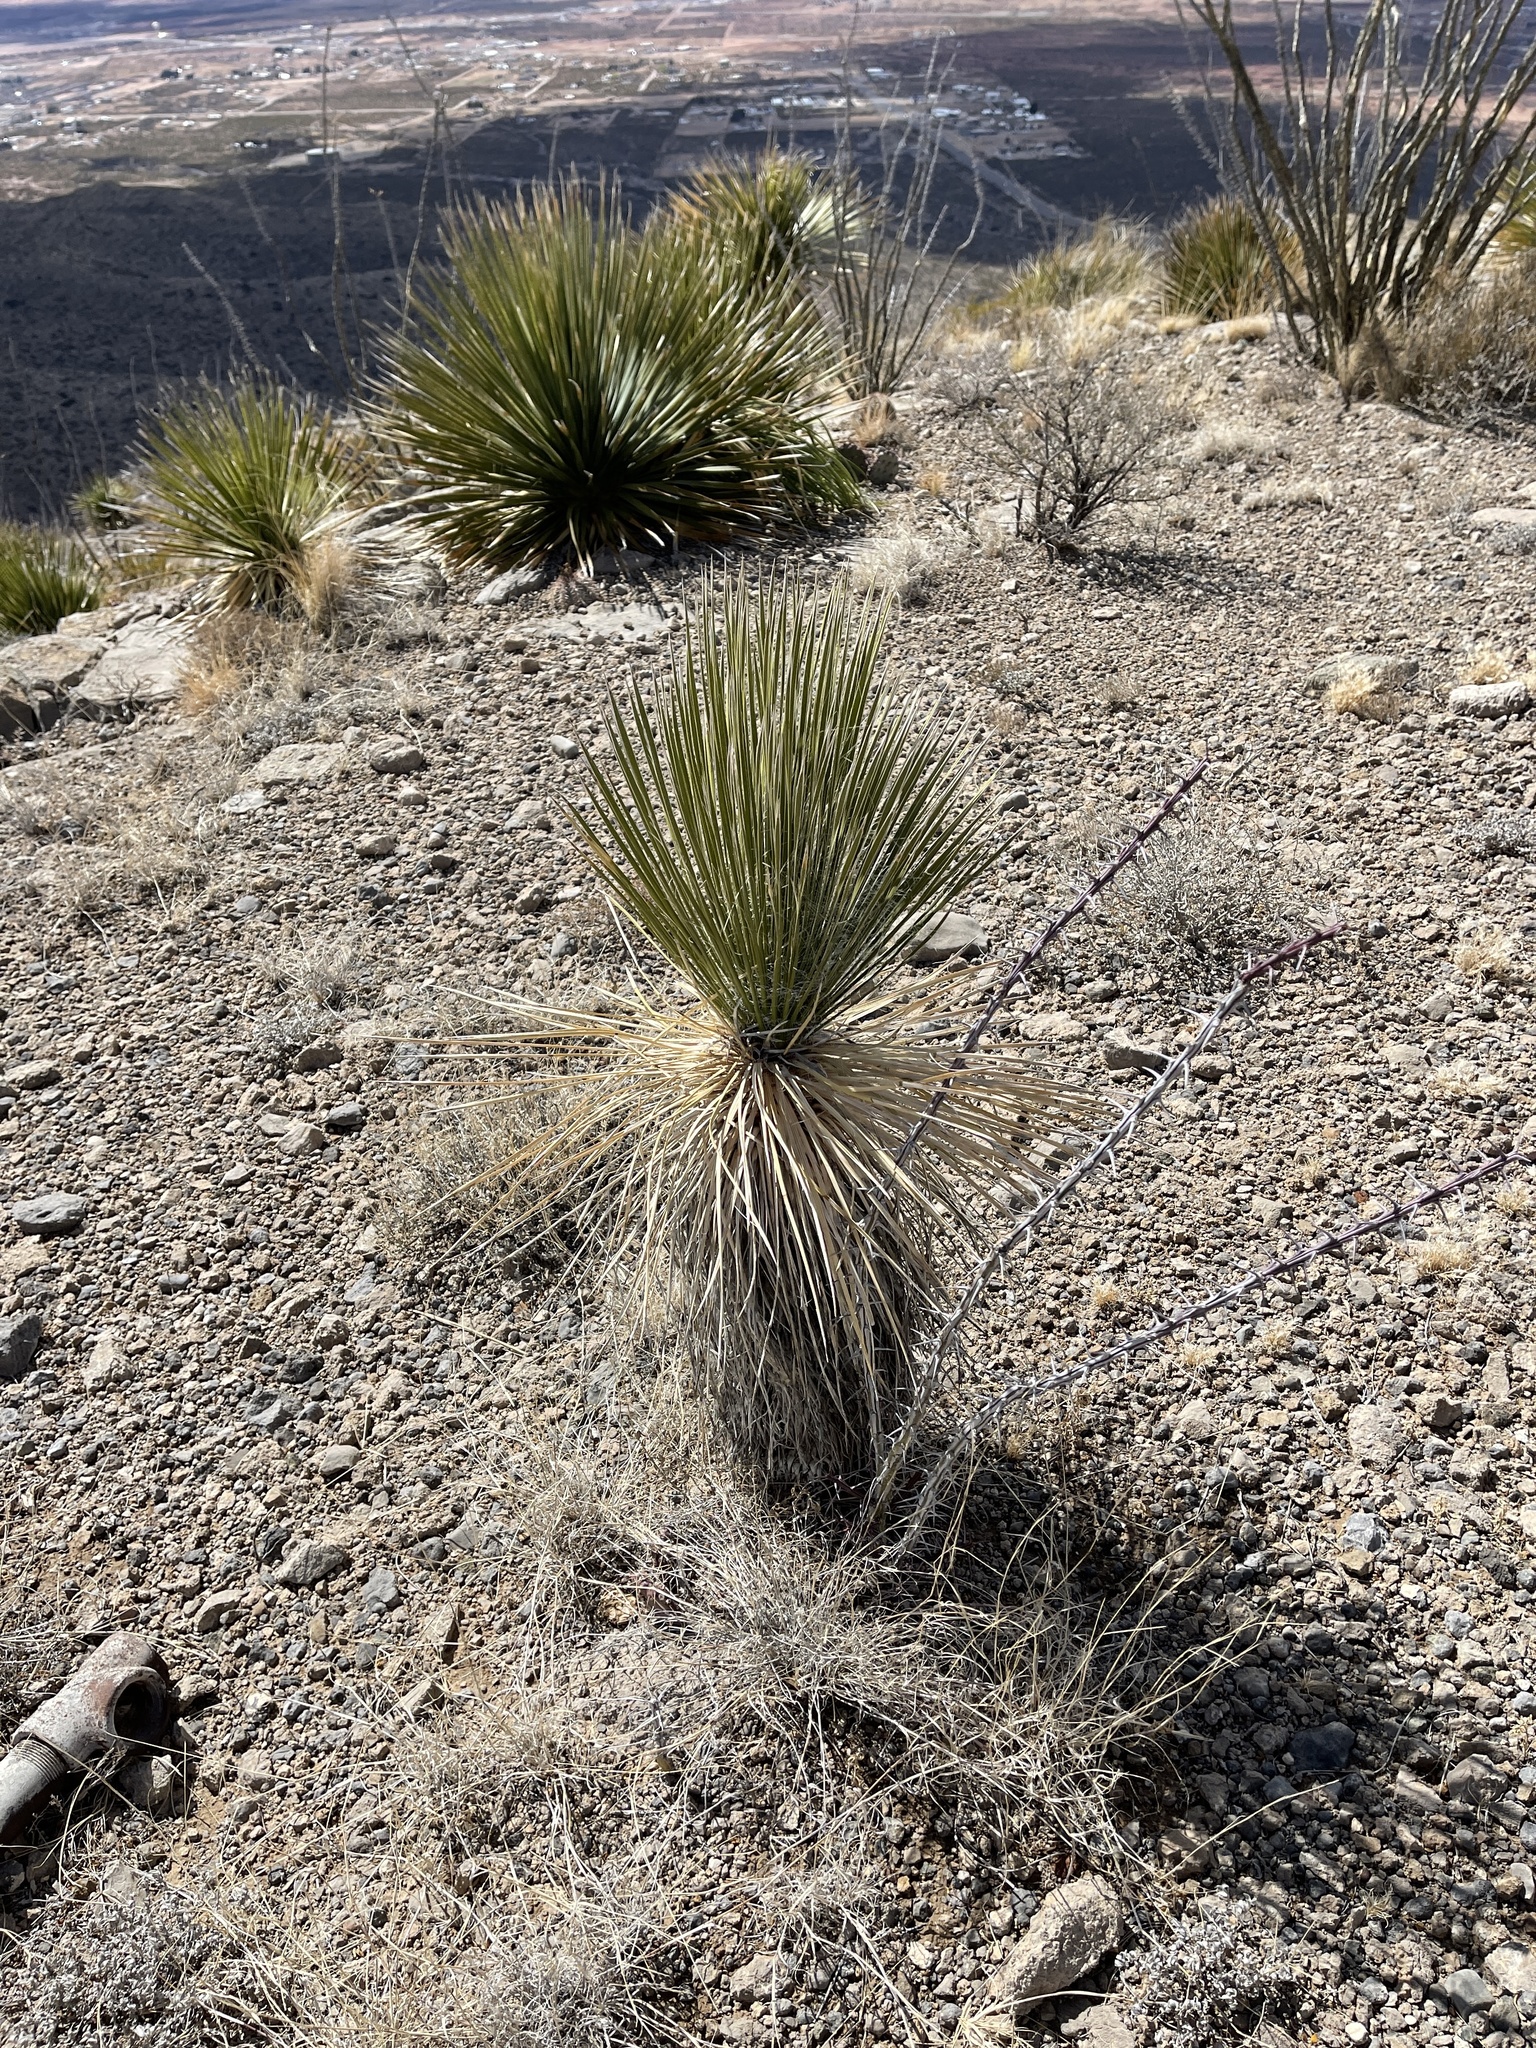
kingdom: Plantae
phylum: Tracheophyta
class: Liliopsida
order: Asparagales
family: Asparagaceae
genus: Yucca
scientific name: Yucca elata
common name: Palmella
